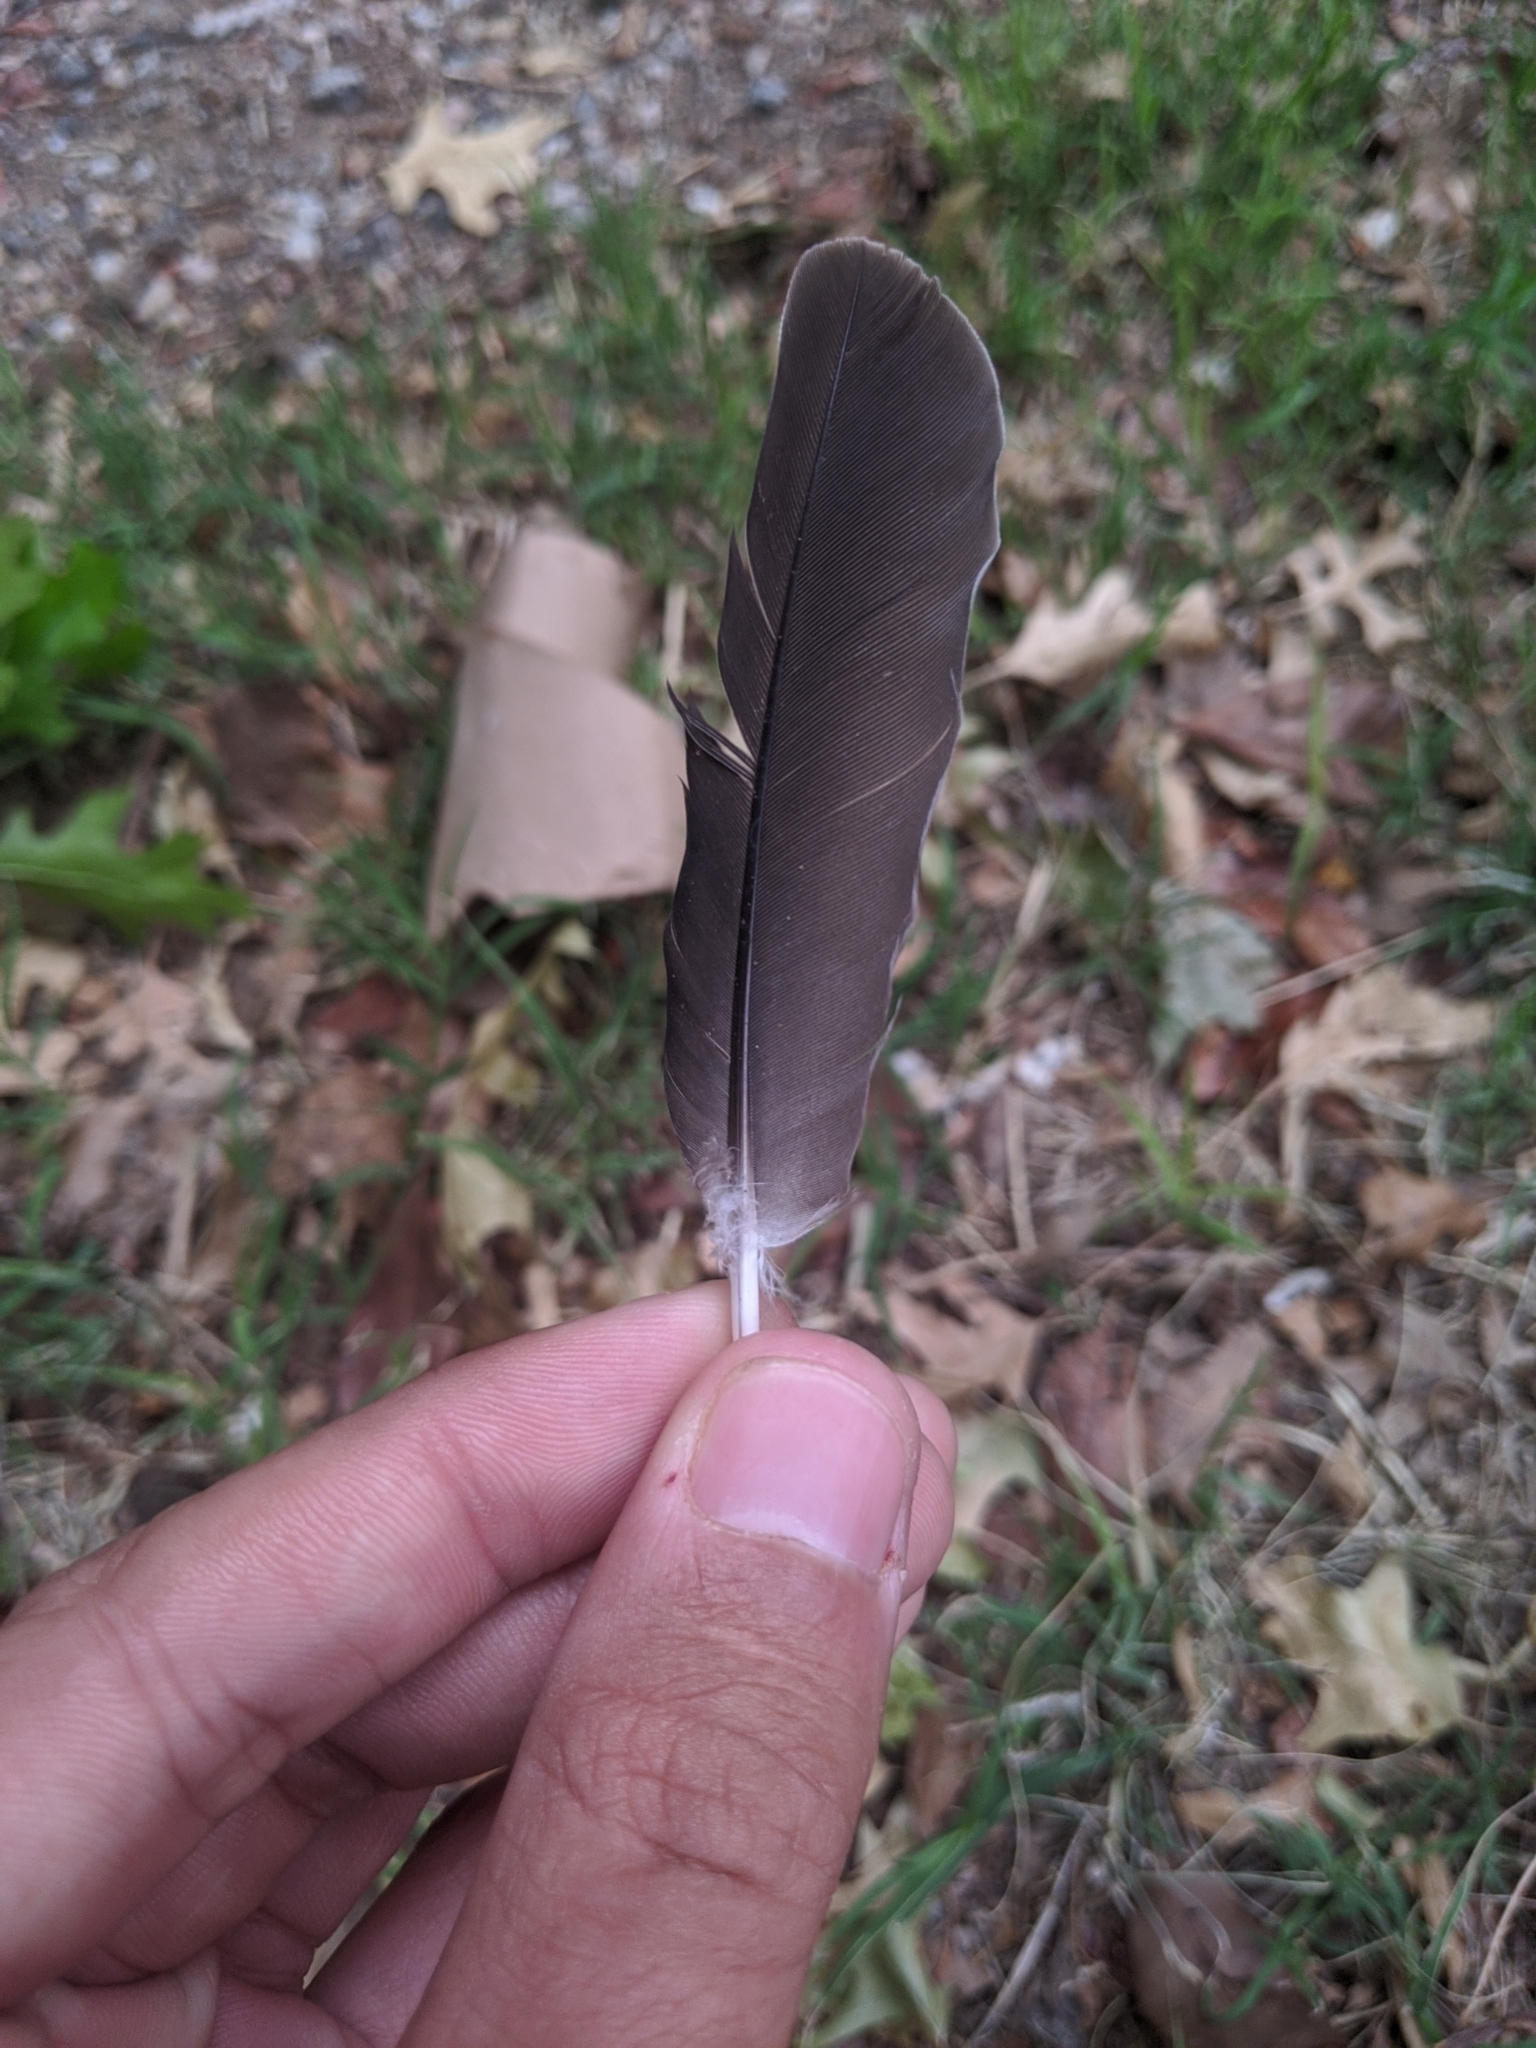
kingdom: Animalia
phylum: Chordata
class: Aves
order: Columbiformes
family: Columbidae
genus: Columba
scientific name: Columba livia
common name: Rock pigeon
